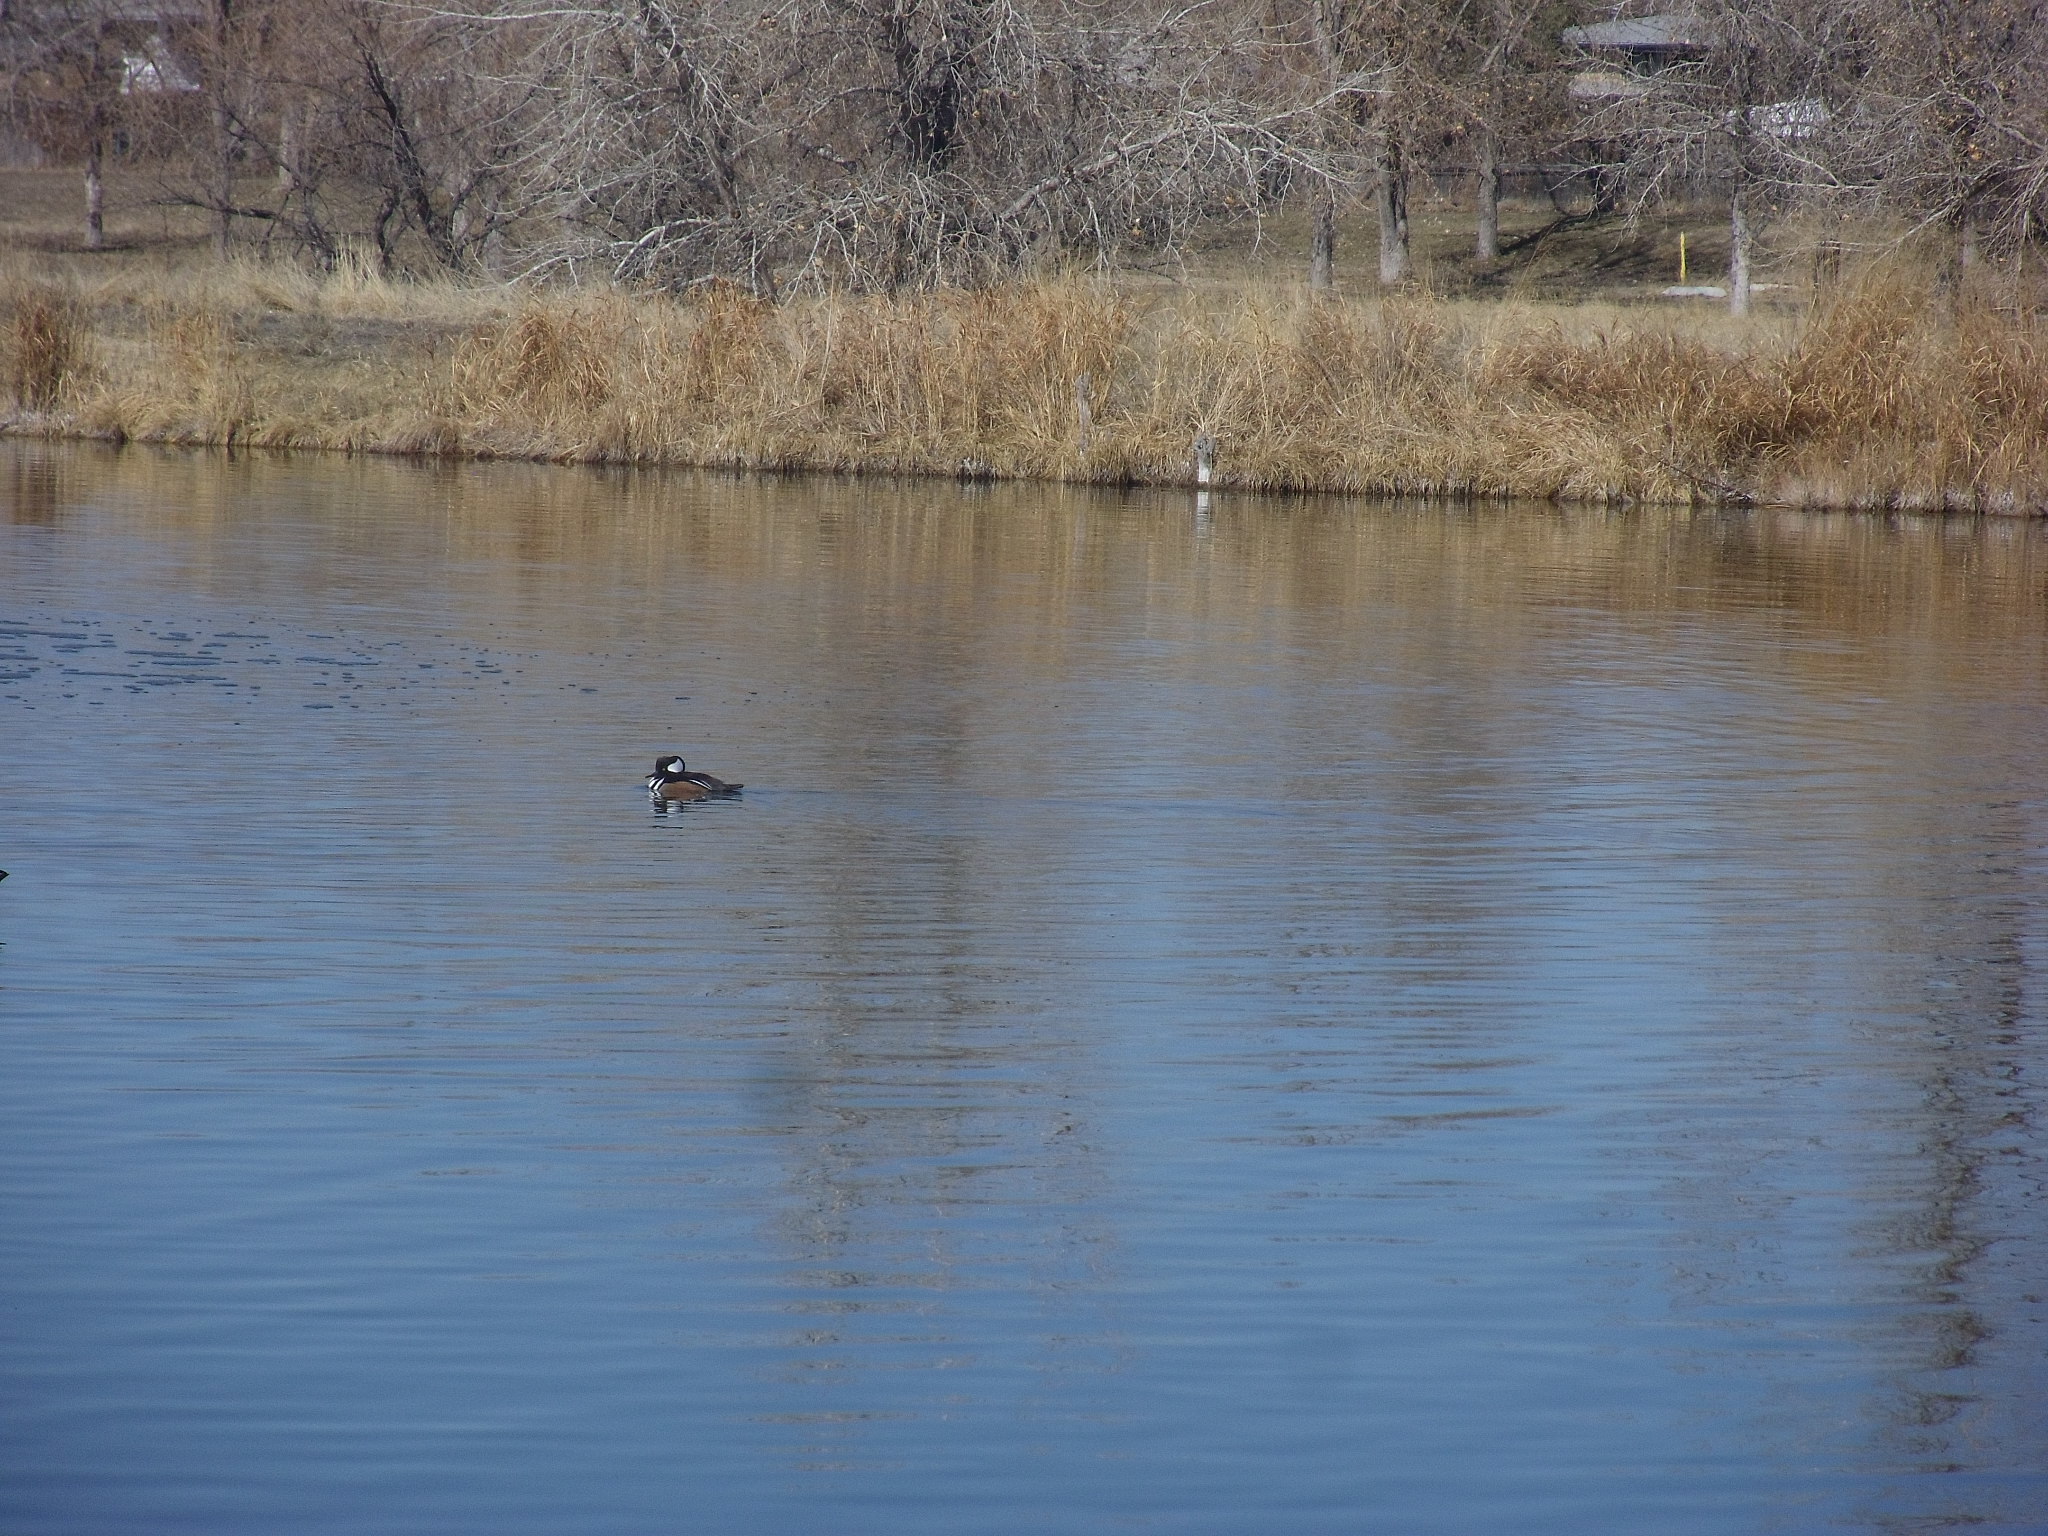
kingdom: Animalia
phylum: Chordata
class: Aves
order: Anseriformes
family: Anatidae
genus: Lophodytes
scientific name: Lophodytes cucullatus
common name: Hooded merganser
